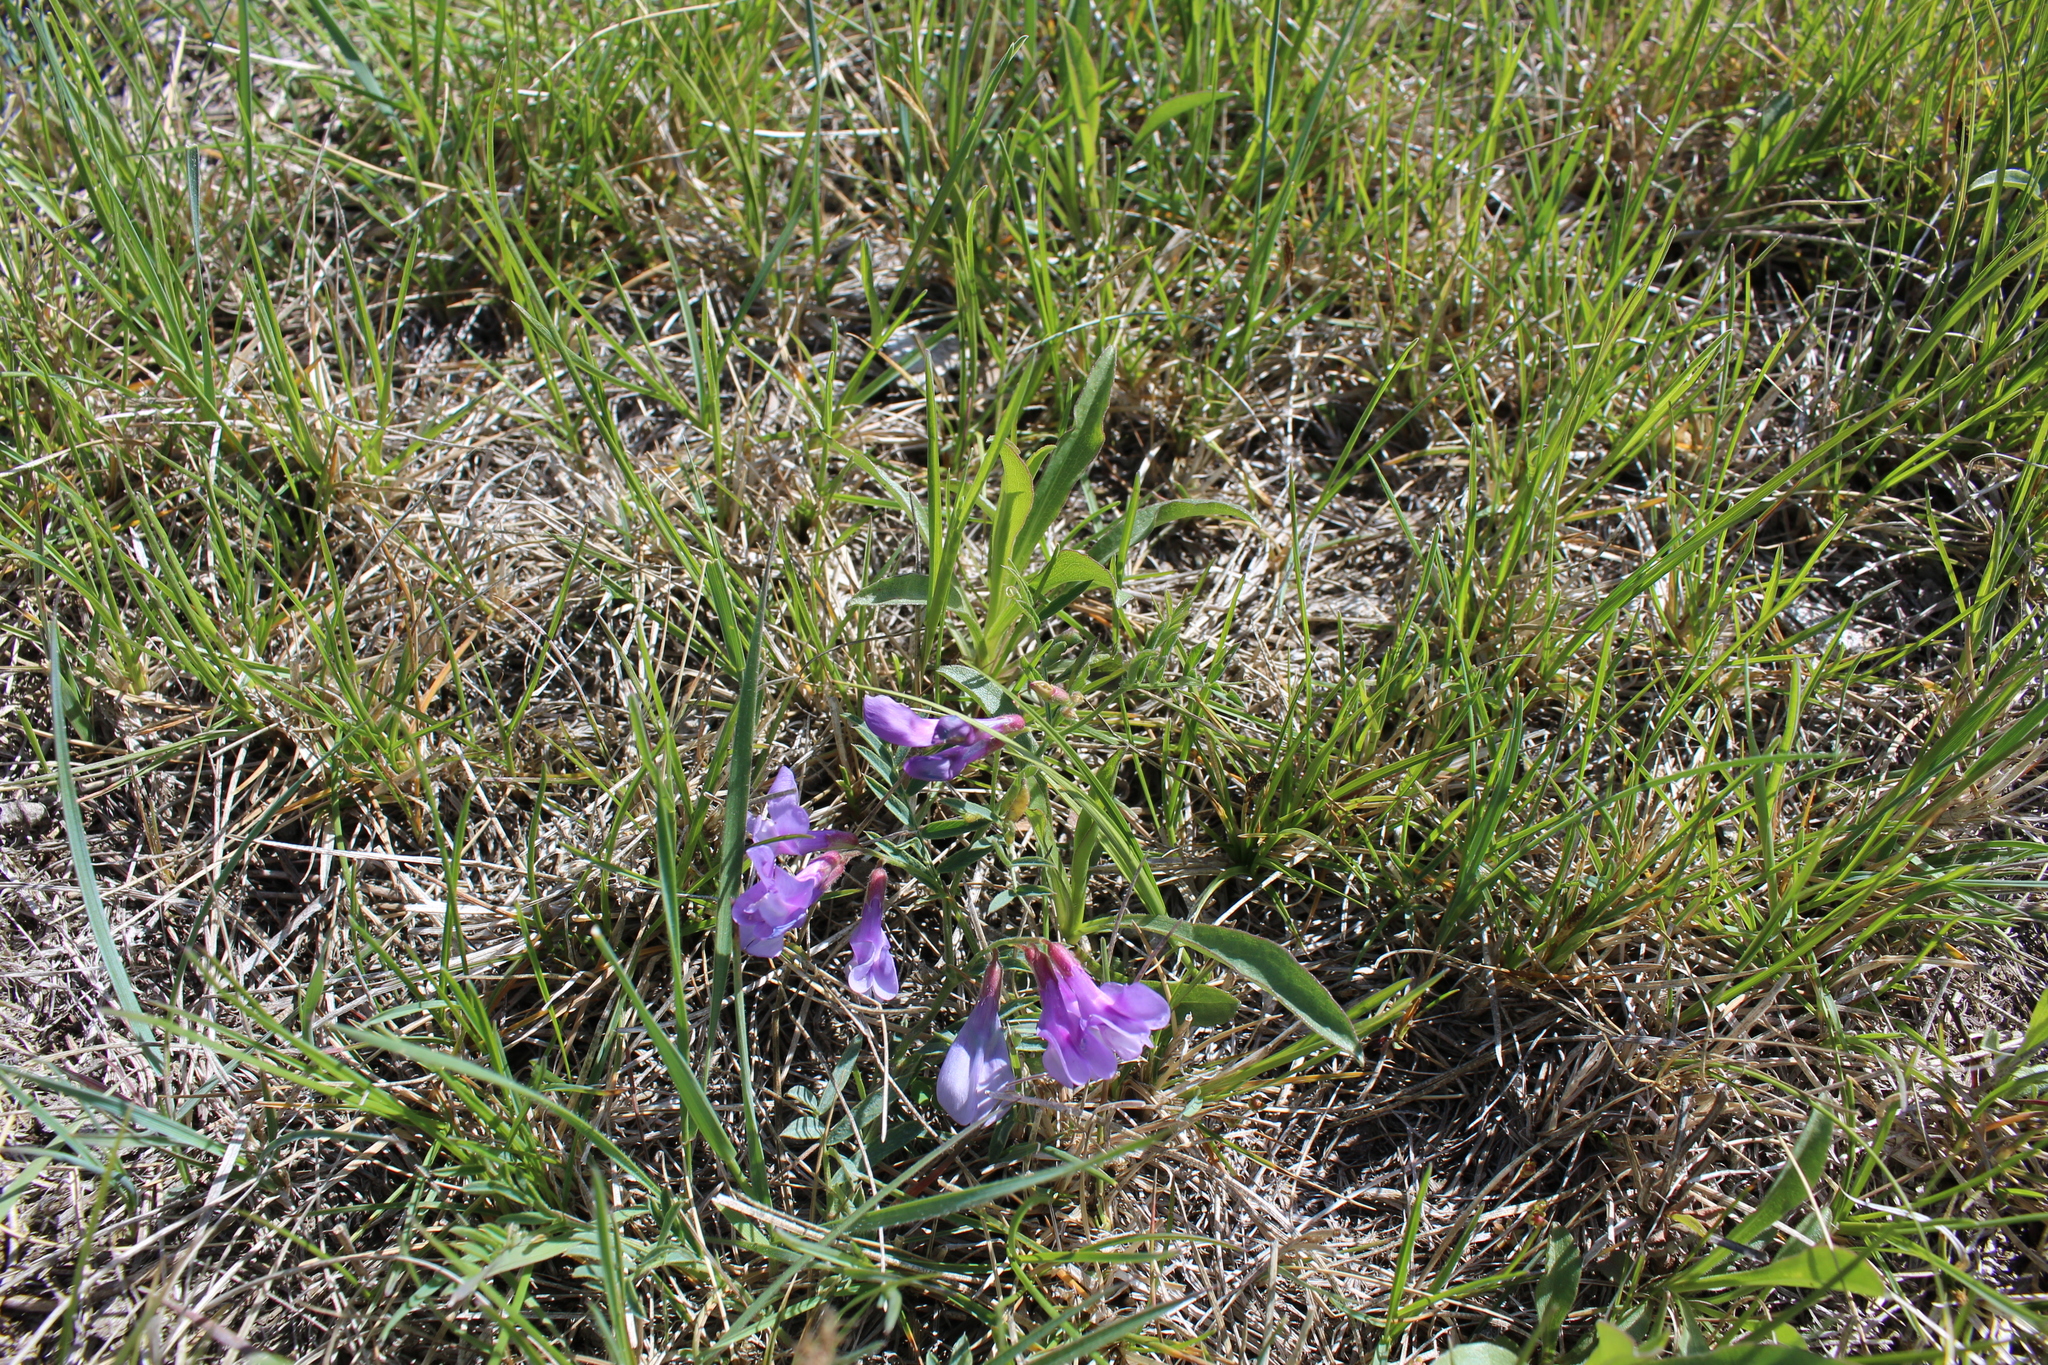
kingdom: Plantae
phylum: Tracheophyta
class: Magnoliopsida
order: Fabales
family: Fabaceae
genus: Vicia
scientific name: Vicia americana
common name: American vetch
